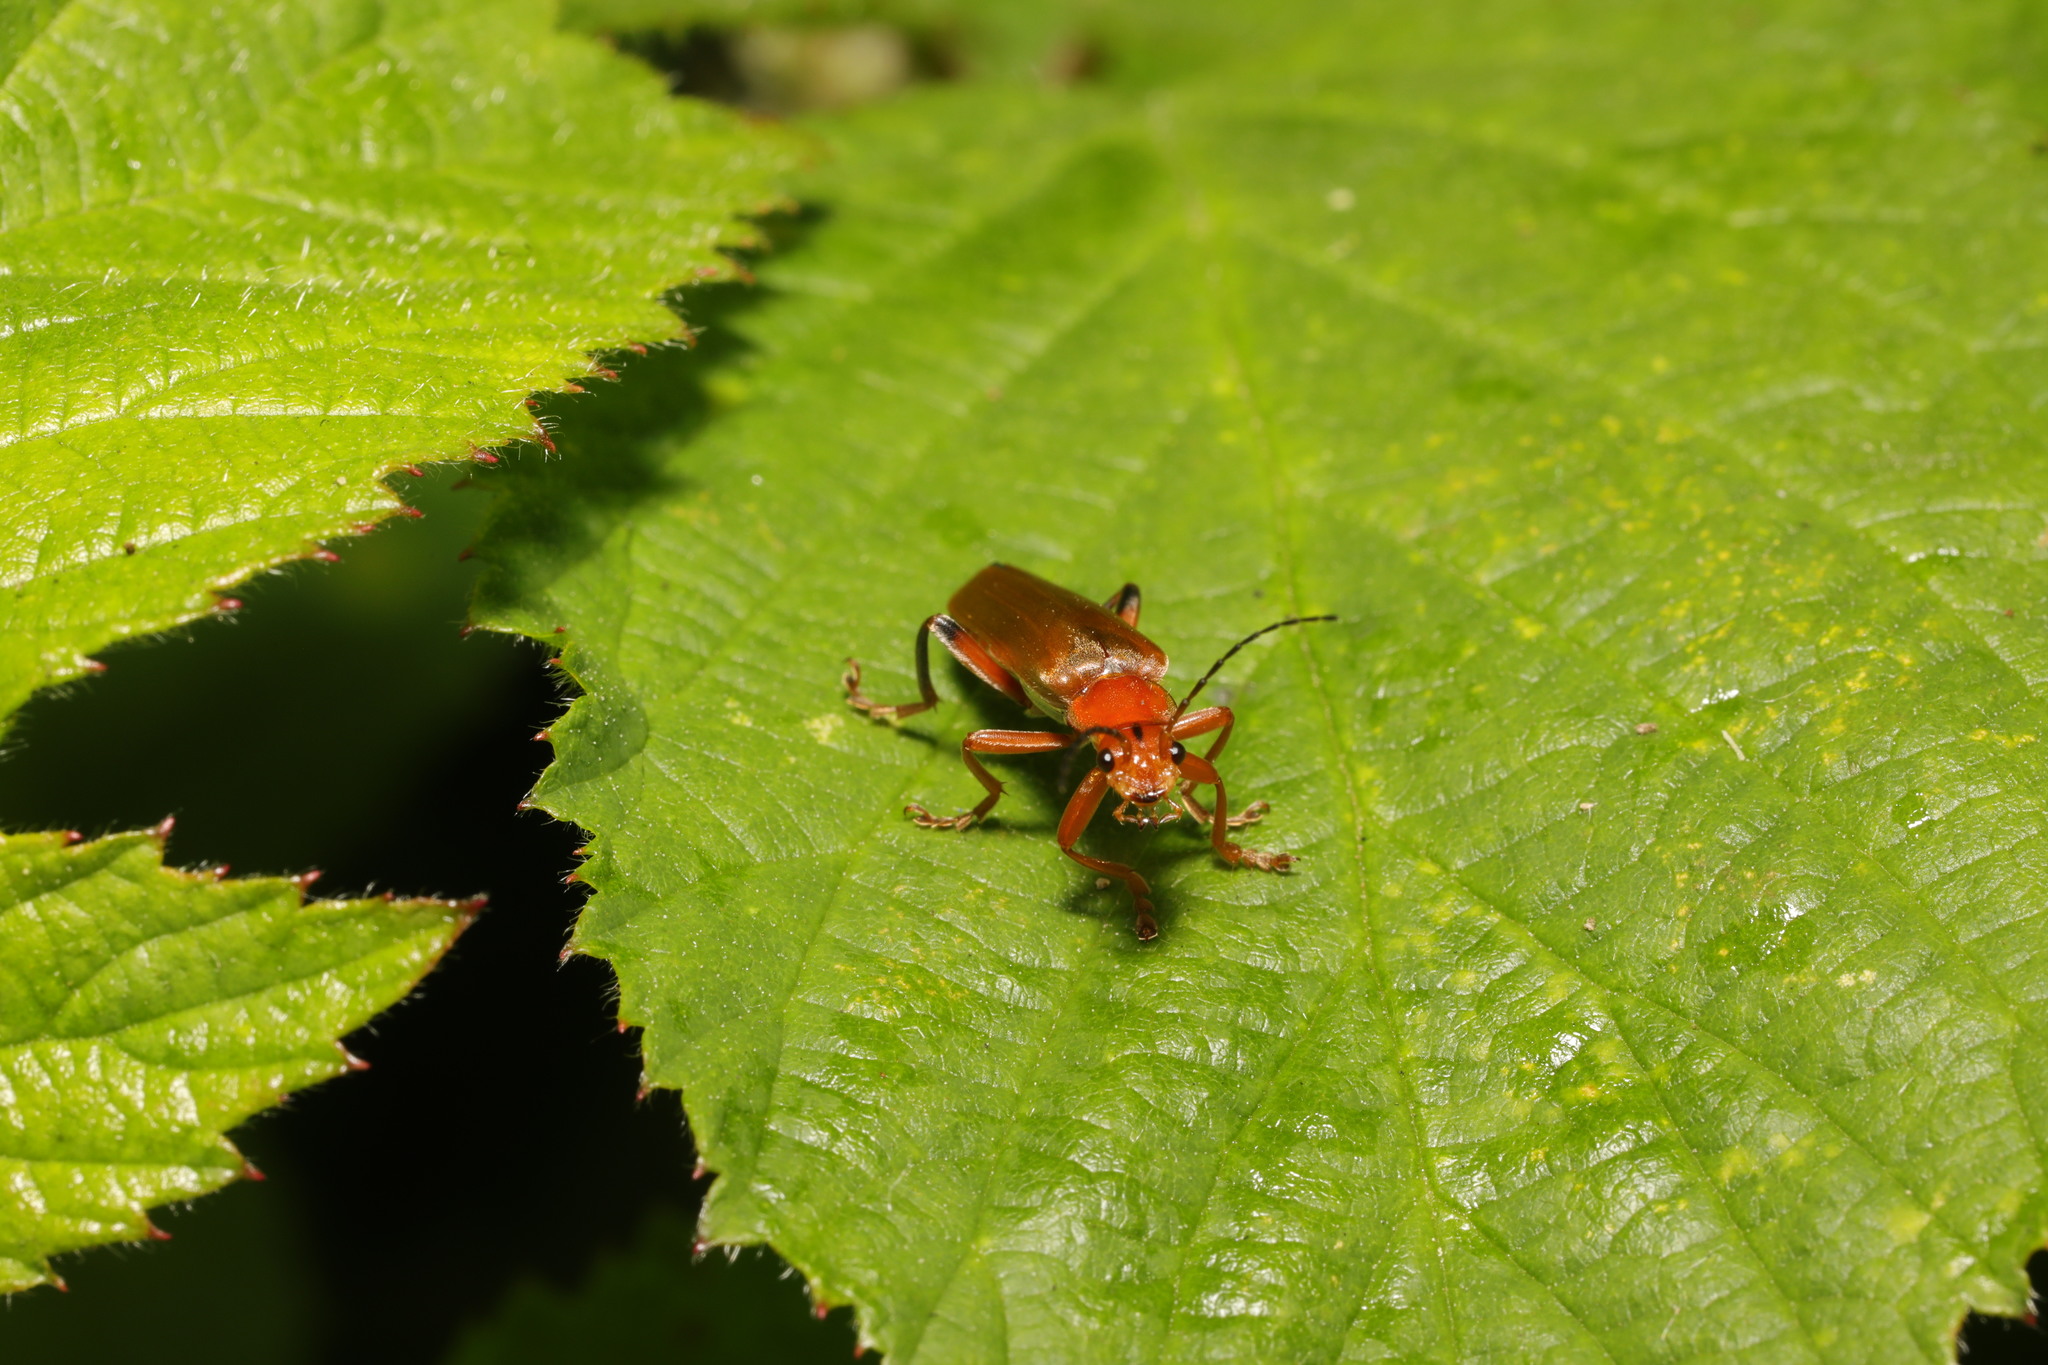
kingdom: Animalia
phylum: Arthropoda
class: Insecta
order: Coleoptera
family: Cantharidae
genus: Cantharis
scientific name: Cantharis livida
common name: Livid soldier beetle
